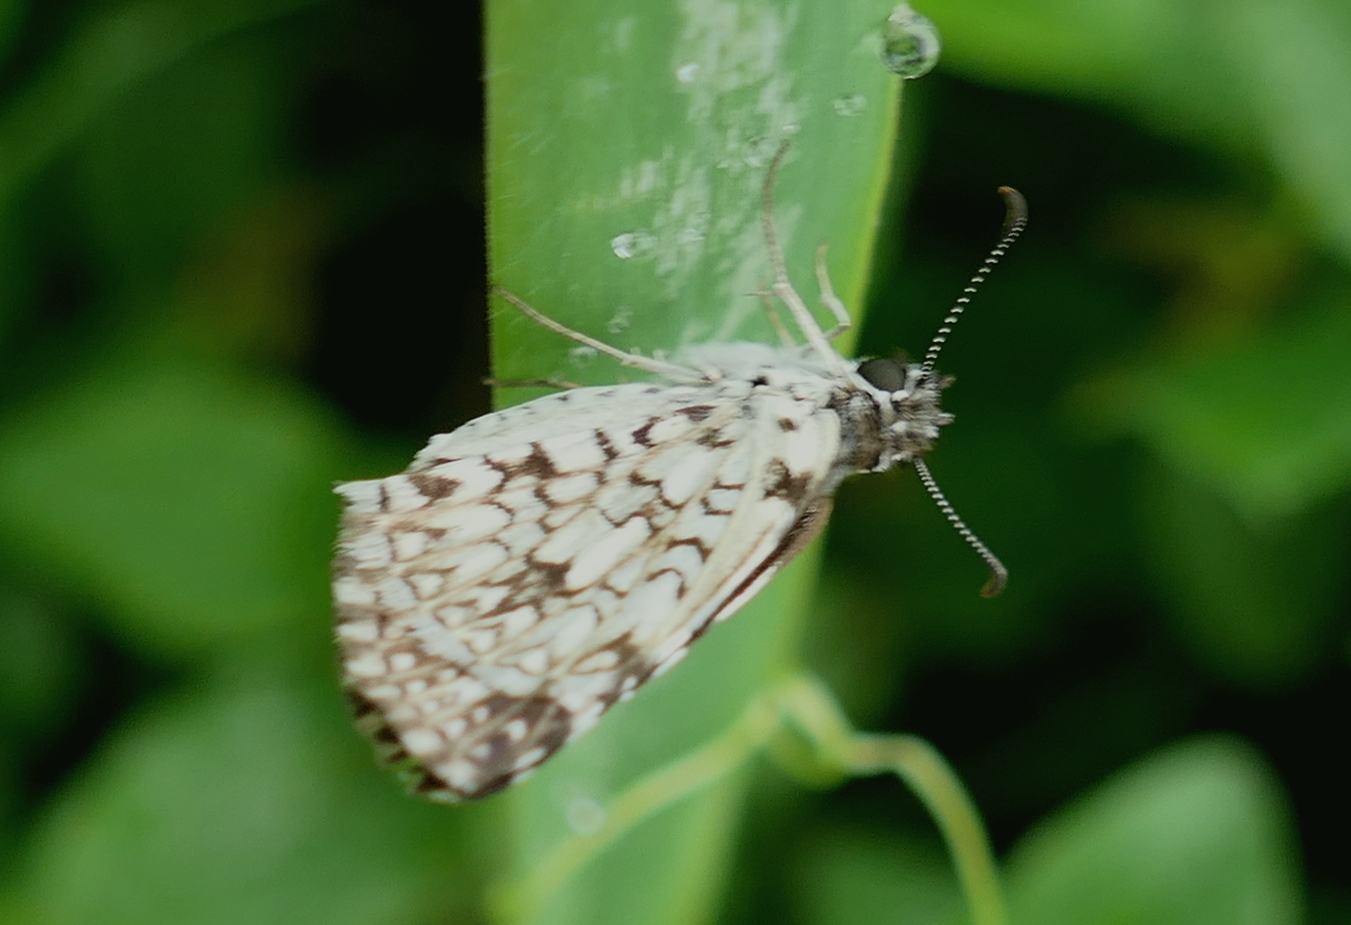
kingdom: Animalia
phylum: Arthropoda
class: Insecta
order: Lepidoptera
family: Hesperiidae
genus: Pyrgus
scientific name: Pyrgus oileus
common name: Tropical checkered-skipper
